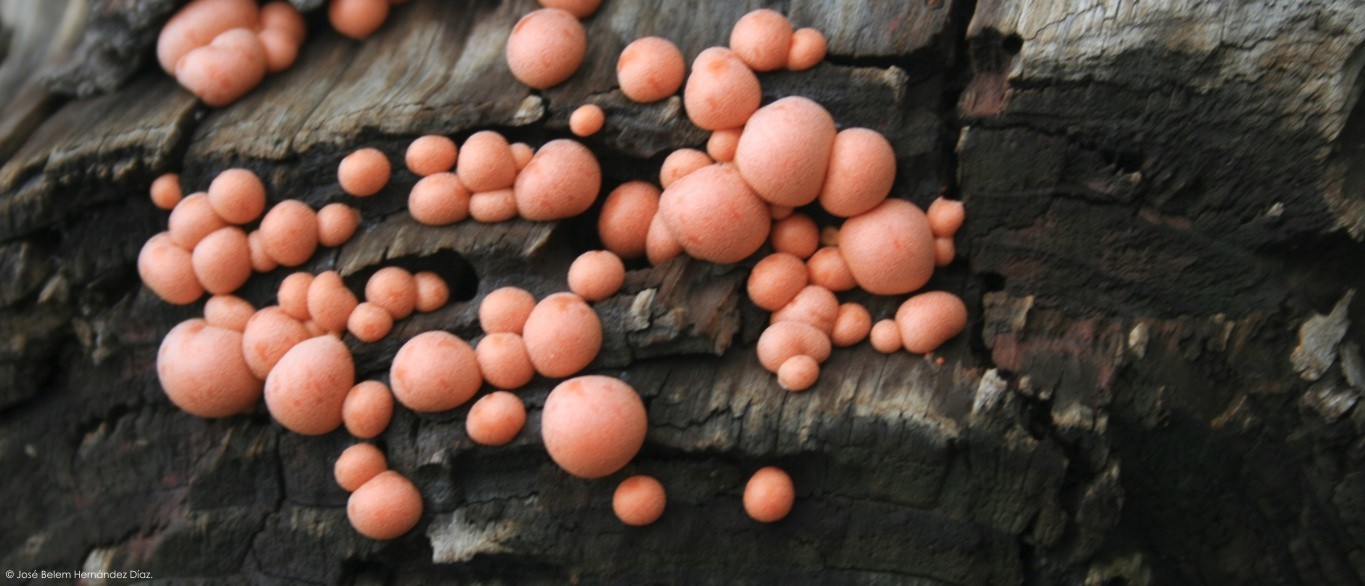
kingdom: Protozoa
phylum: Mycetozoa
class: Myxomycetes
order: Cribrariales
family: Tubiferaceae
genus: Lycogala
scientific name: Lycogala epidendrum
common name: Wolf's milk
